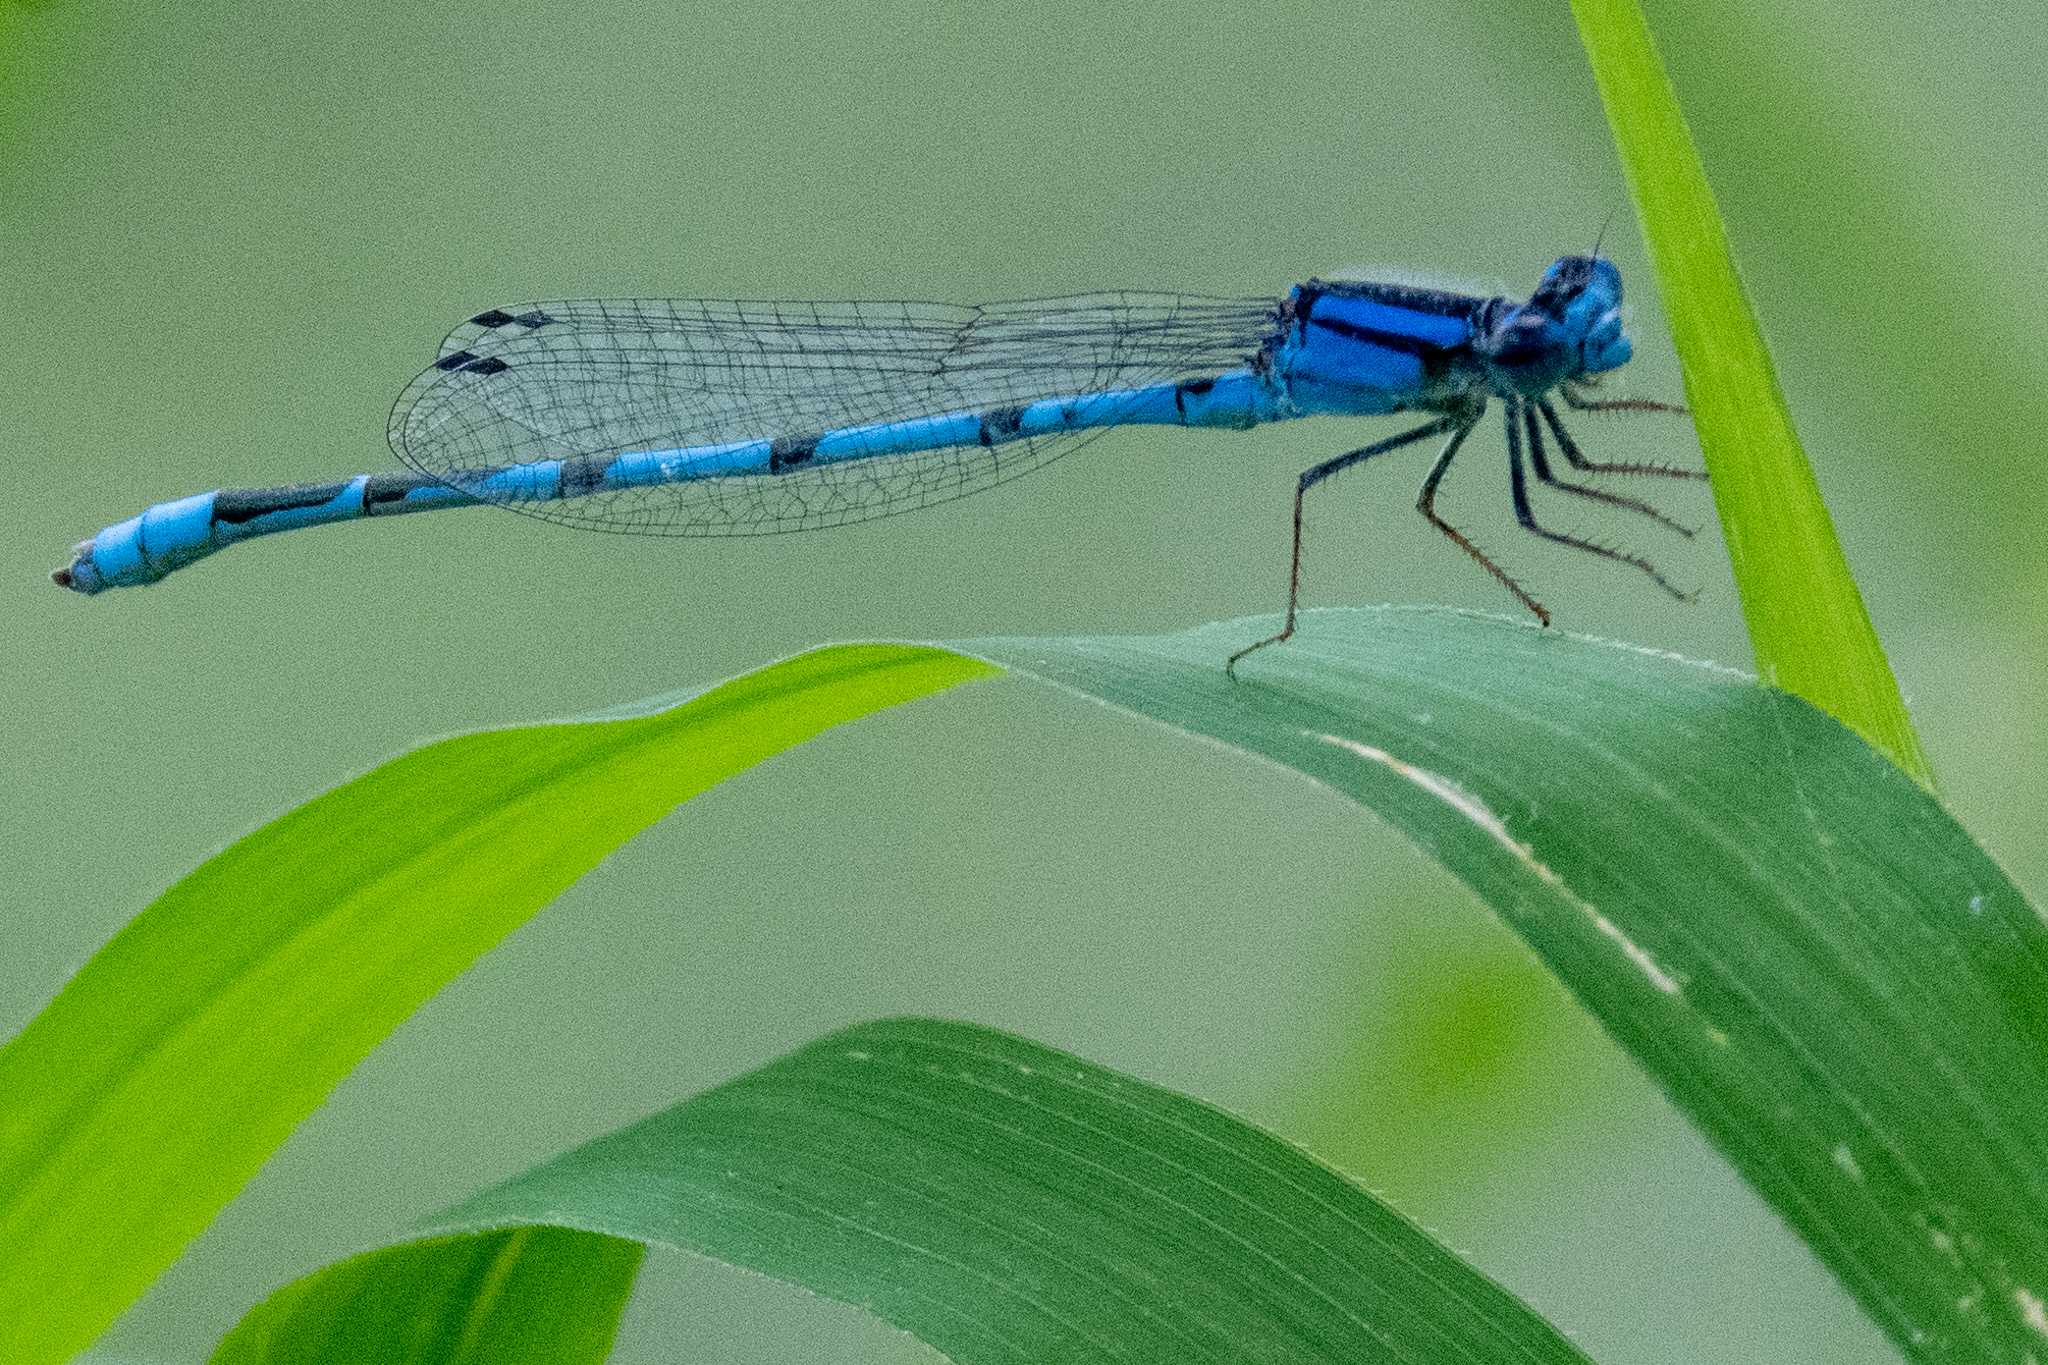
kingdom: Animalia
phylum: Arthropoda
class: Insecta
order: Odonata
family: Coenagrionidae
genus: Enallagma
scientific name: Enallagma civile
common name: Damselfly
